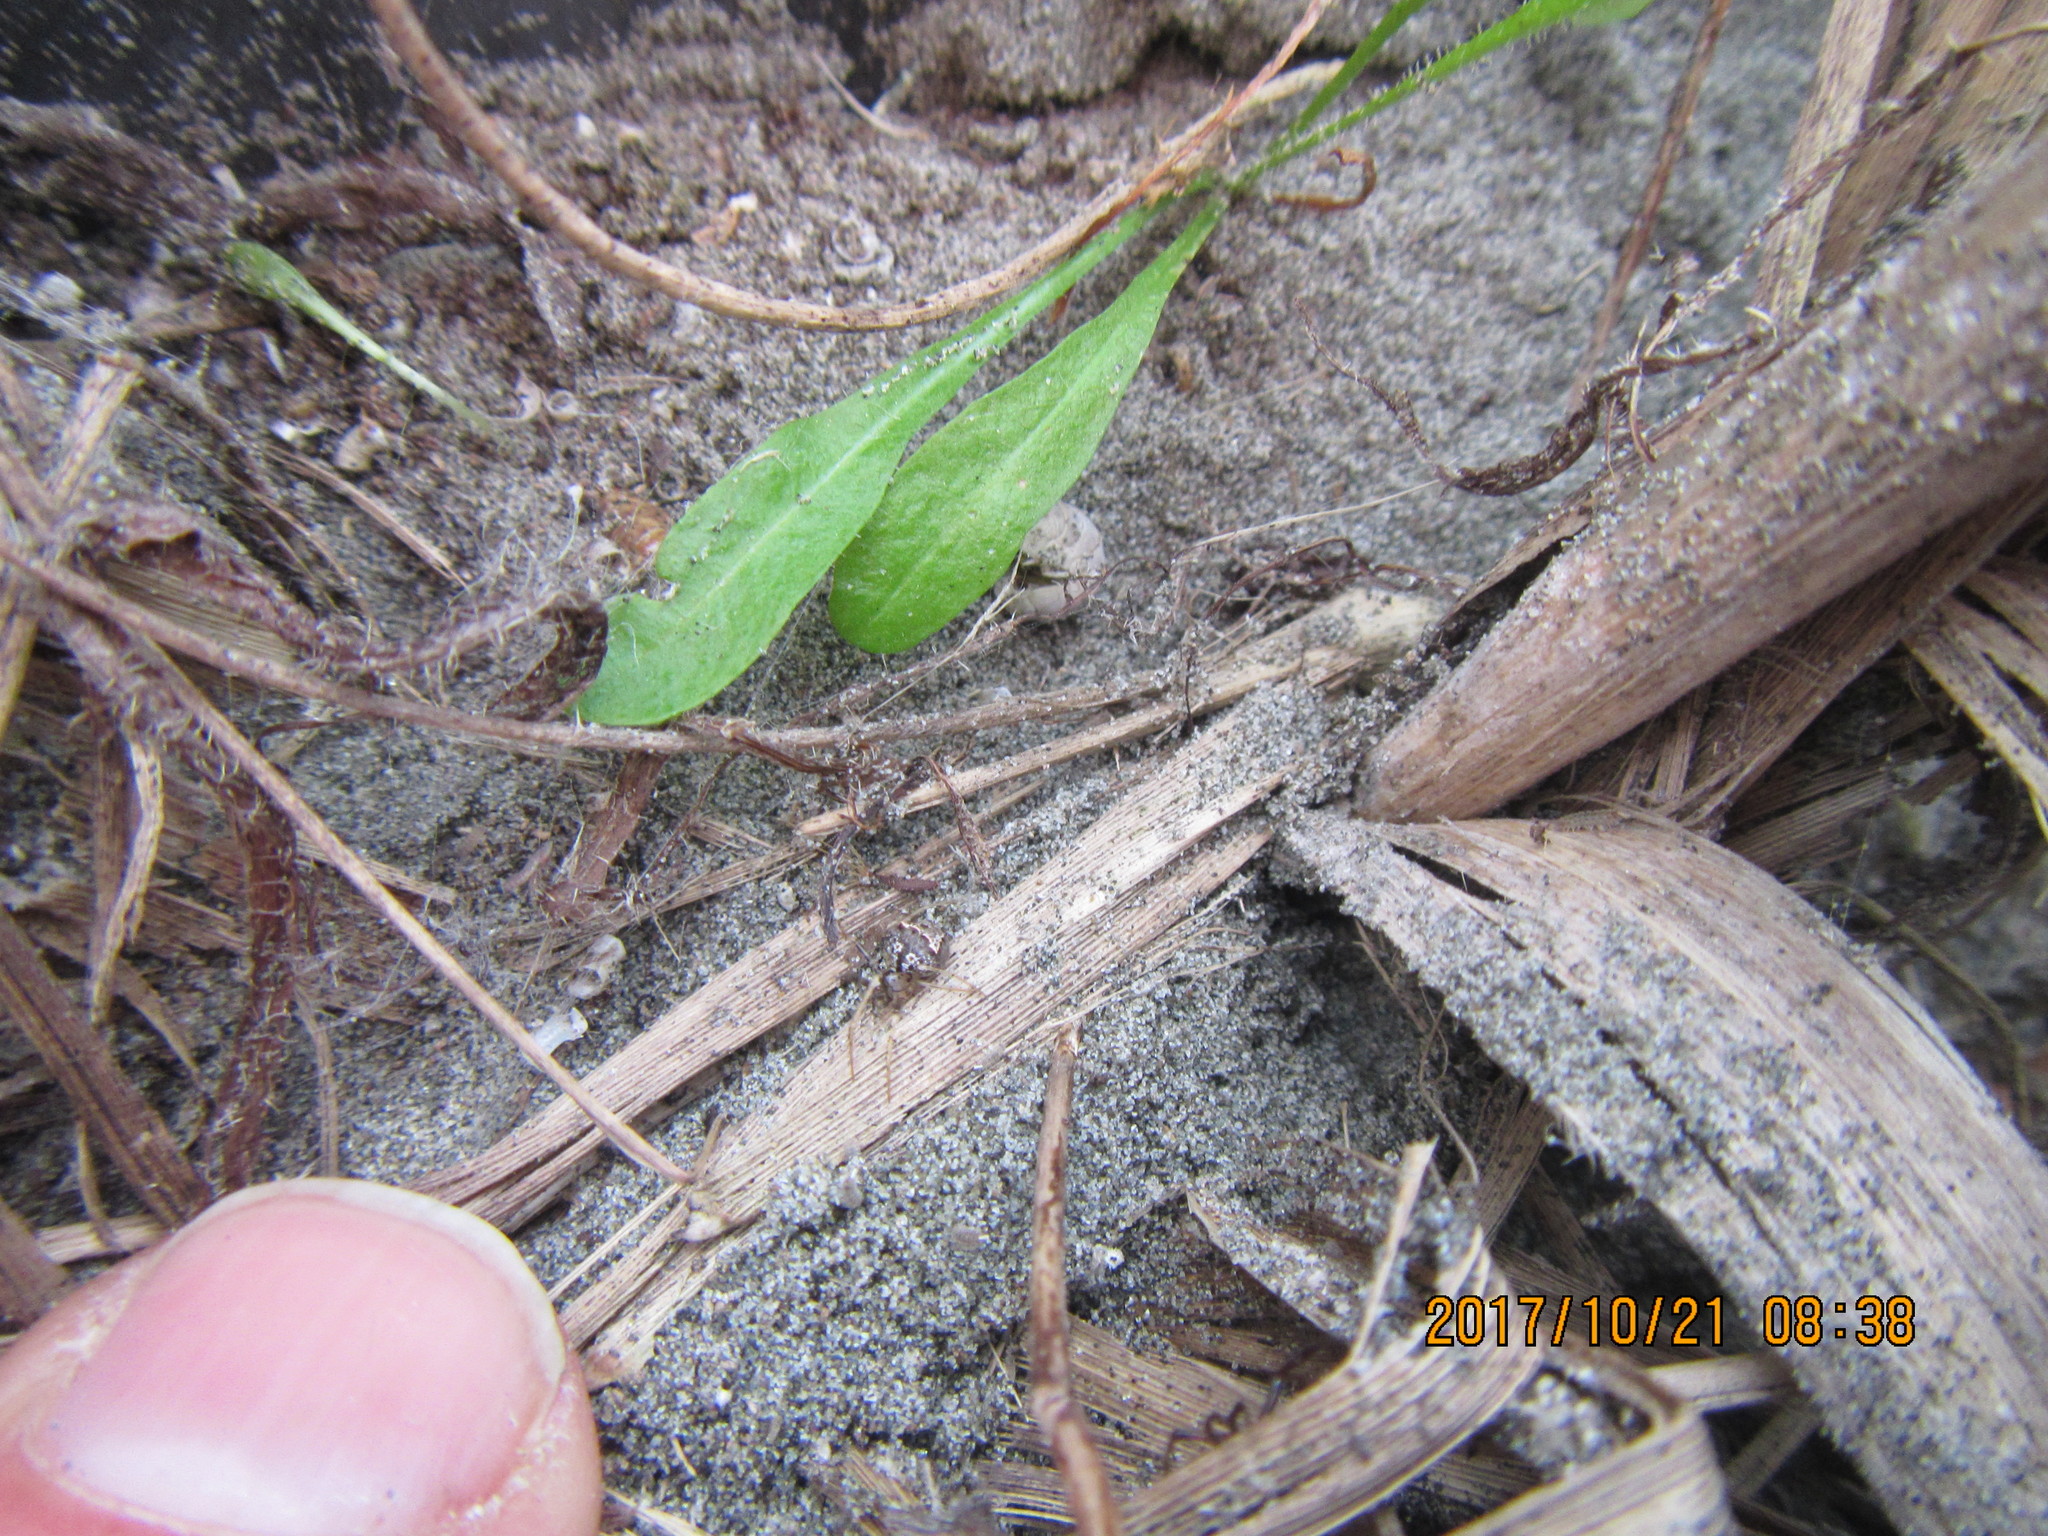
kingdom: Animalia
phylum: Arthropoda
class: Arachnida
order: Araneae
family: Mimetidae
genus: Australomimetus
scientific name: Australomimetus hartleyensis
